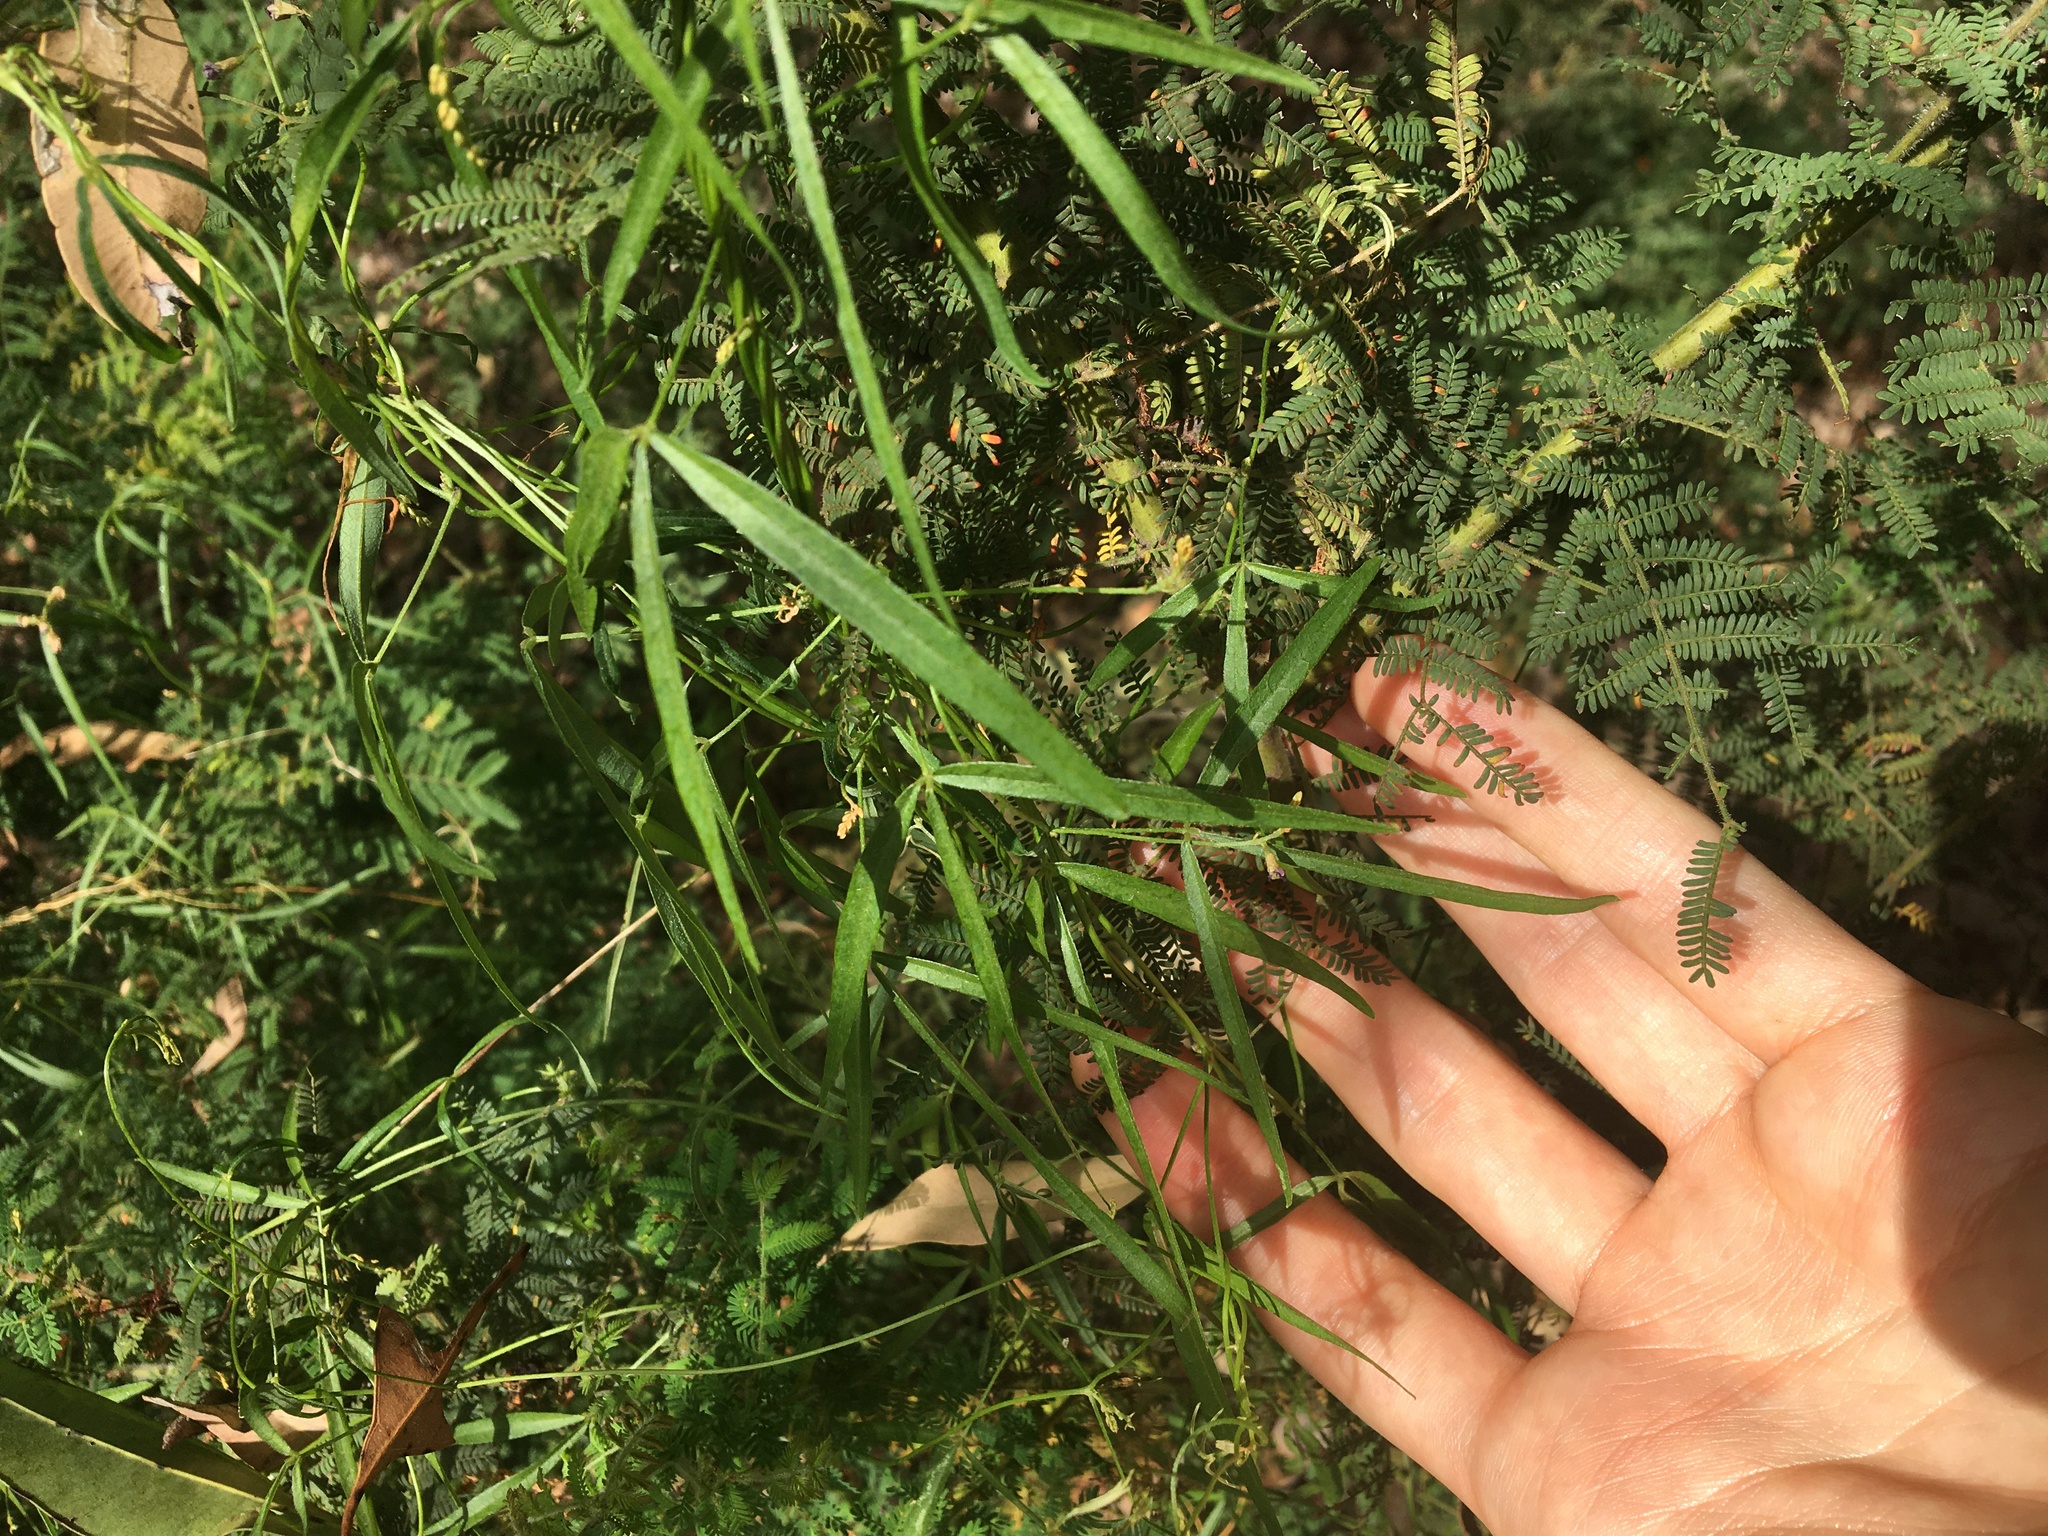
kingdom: Plantae
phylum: Tracheophyta
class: Magnoliopsida
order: Fabales
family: Fabaceae
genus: Glycine
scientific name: Glycine clandestina
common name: Twining glycine
